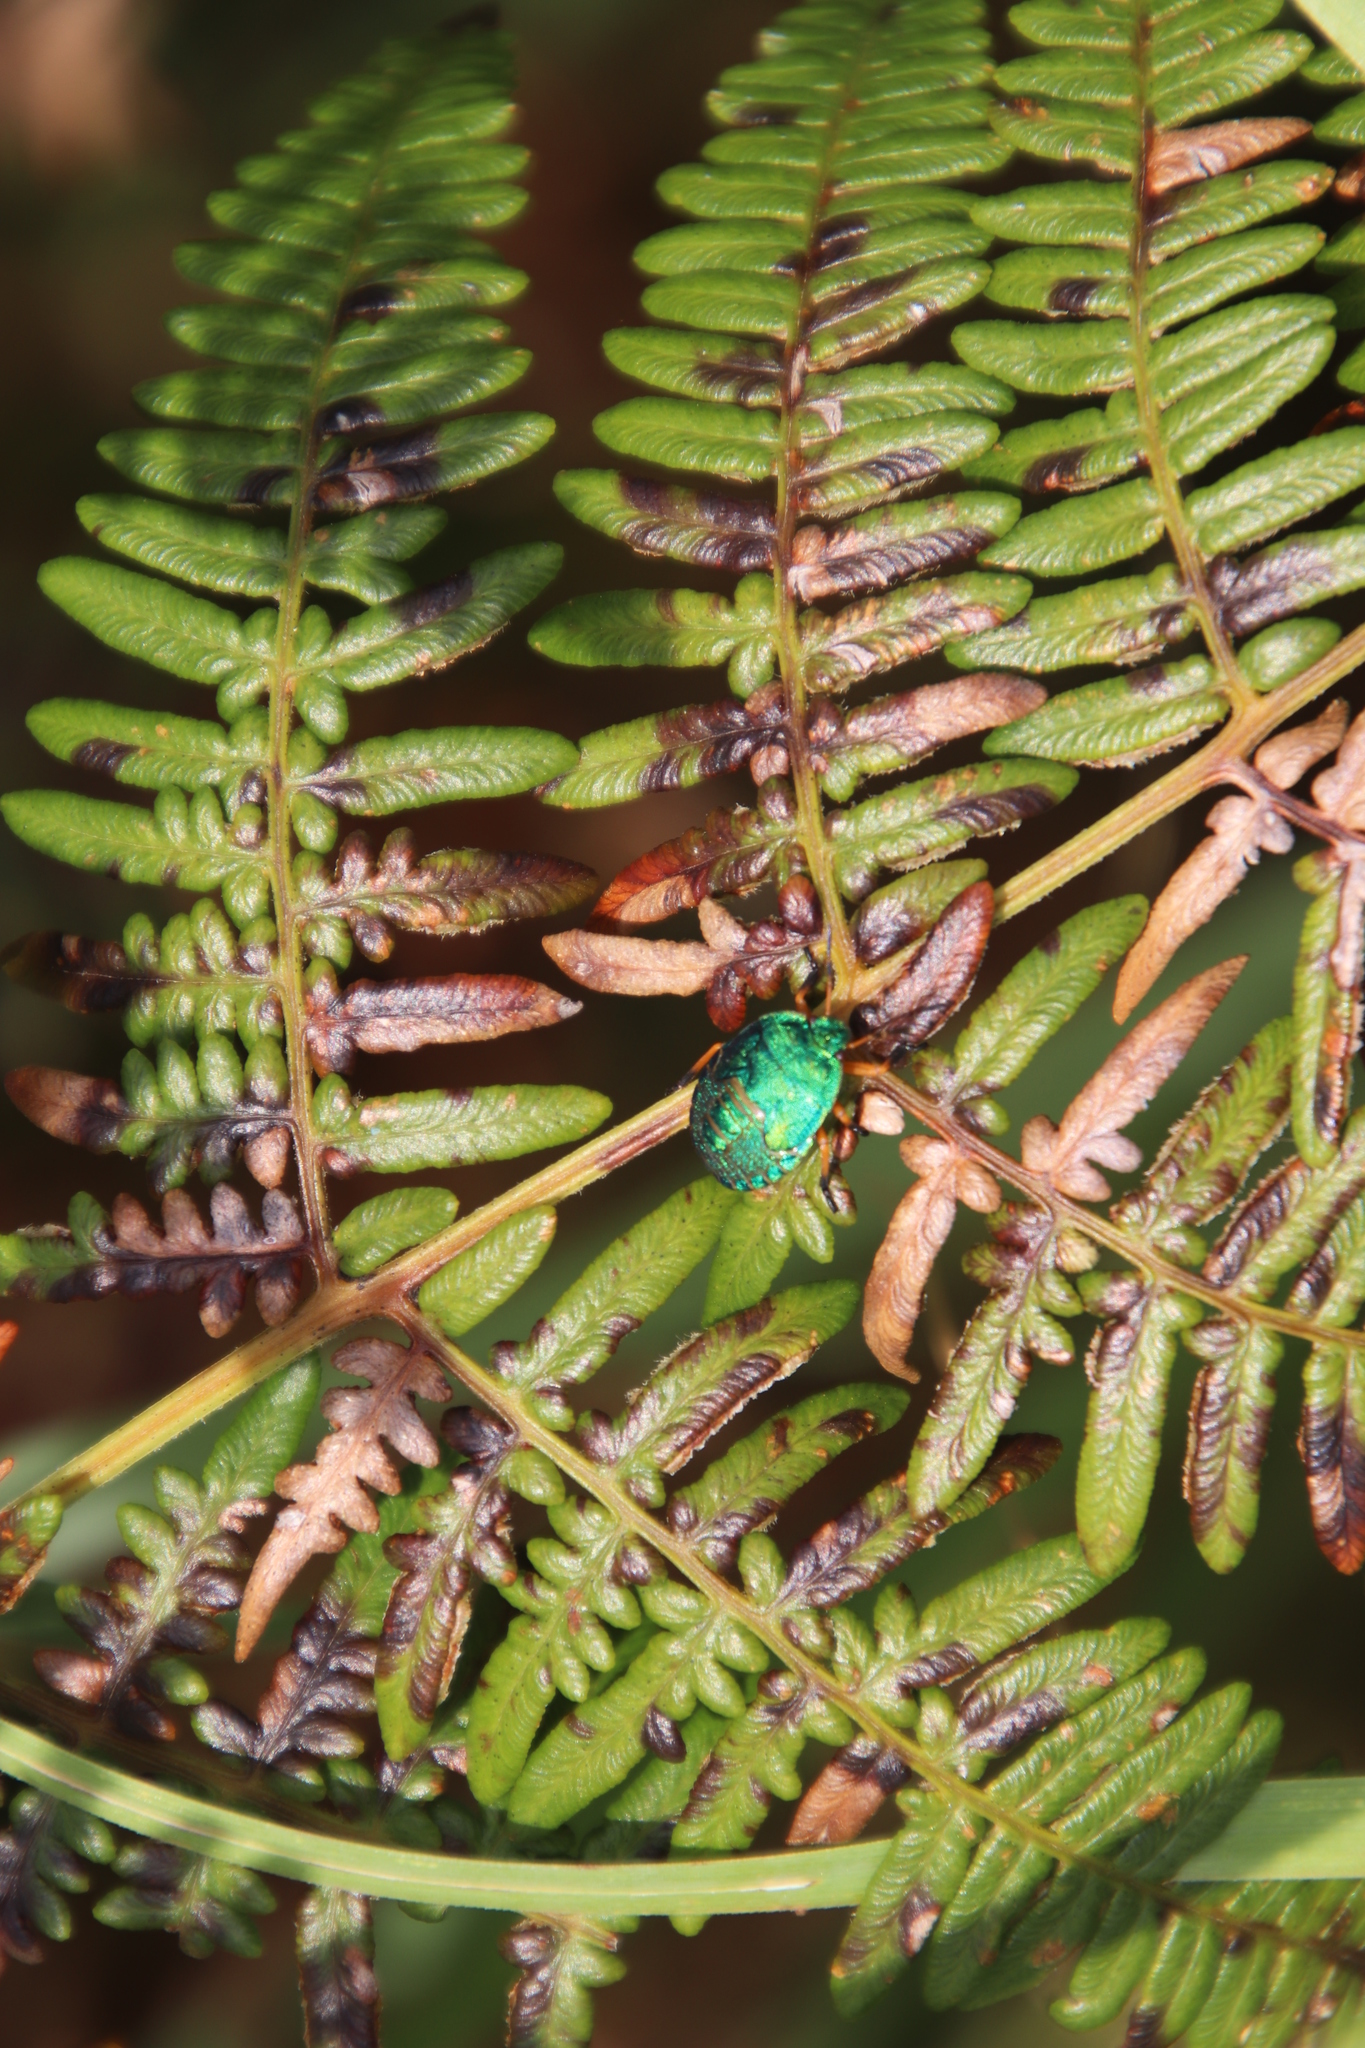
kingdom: Plantae
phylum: Tracheophyta
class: Polypodiopsida
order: Polypodiales
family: Dennstaedtiaceae
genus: Pteridium
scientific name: Pteridium aquilinum
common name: Bracken
